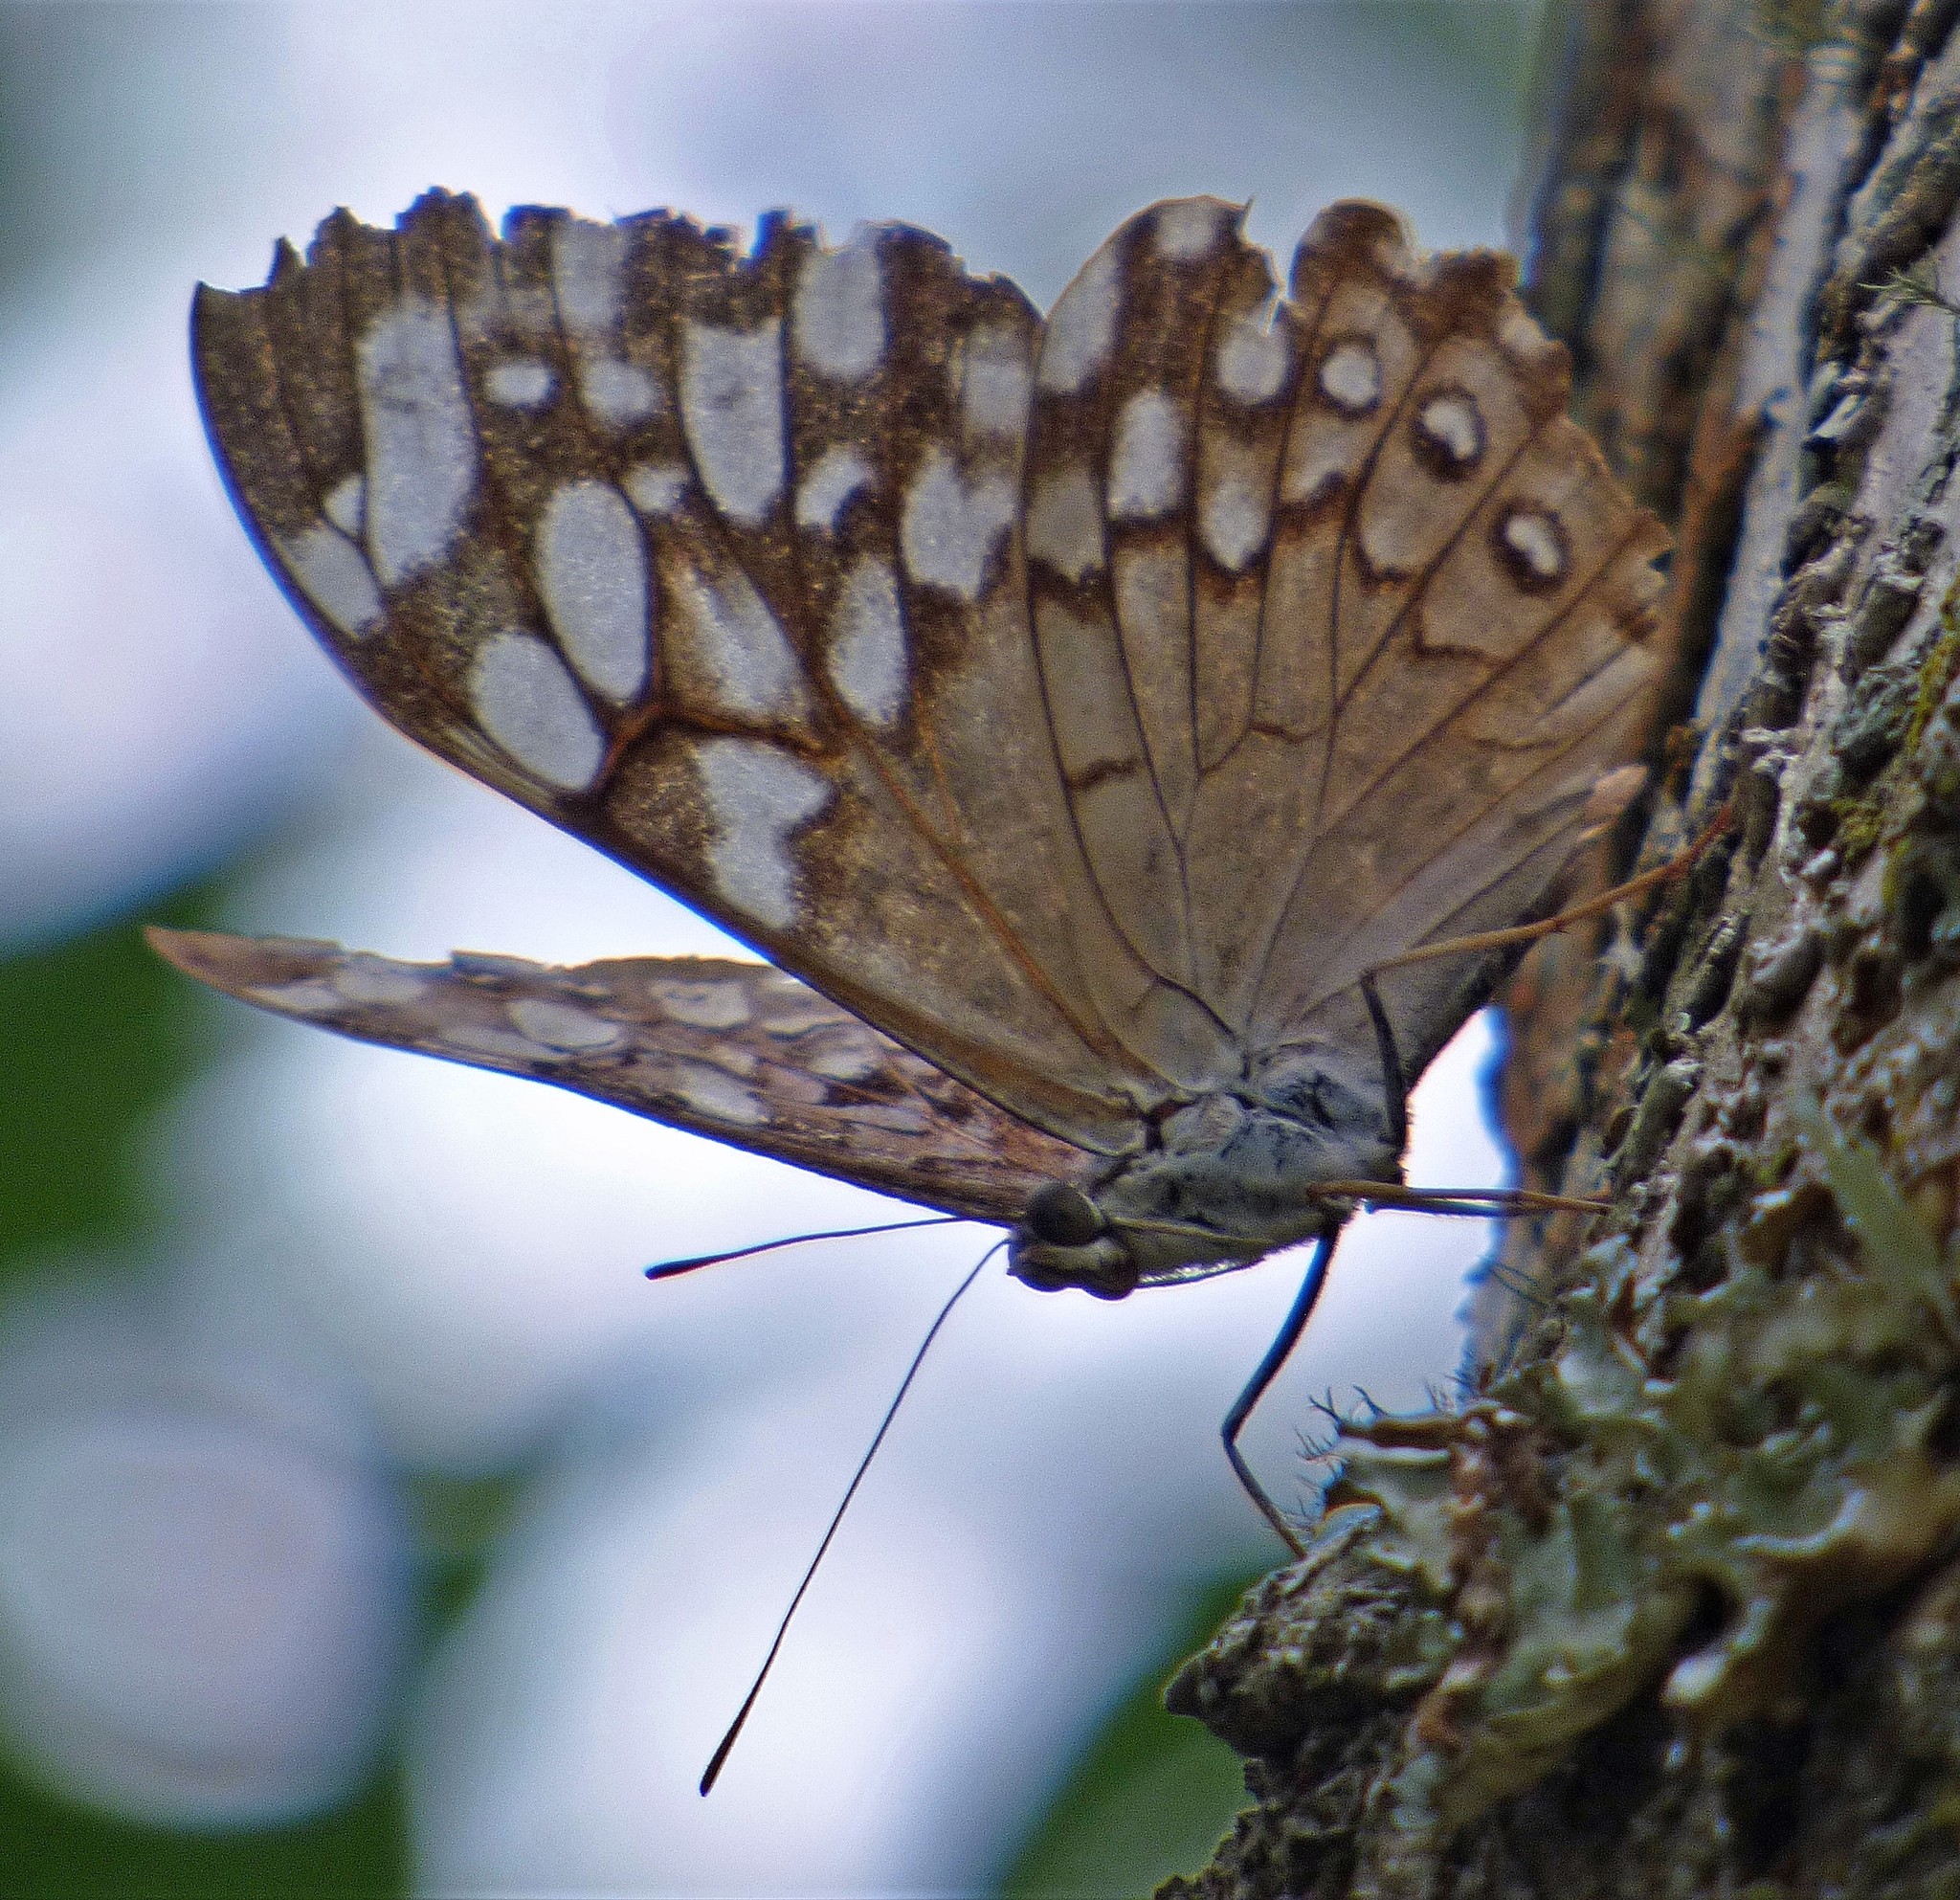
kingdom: Animalia
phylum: Arthropoda
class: Insecta
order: Lepidoptera
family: Nymphalidae
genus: Hamadryas
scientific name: Hamadryas epinome
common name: Epinome cracker
